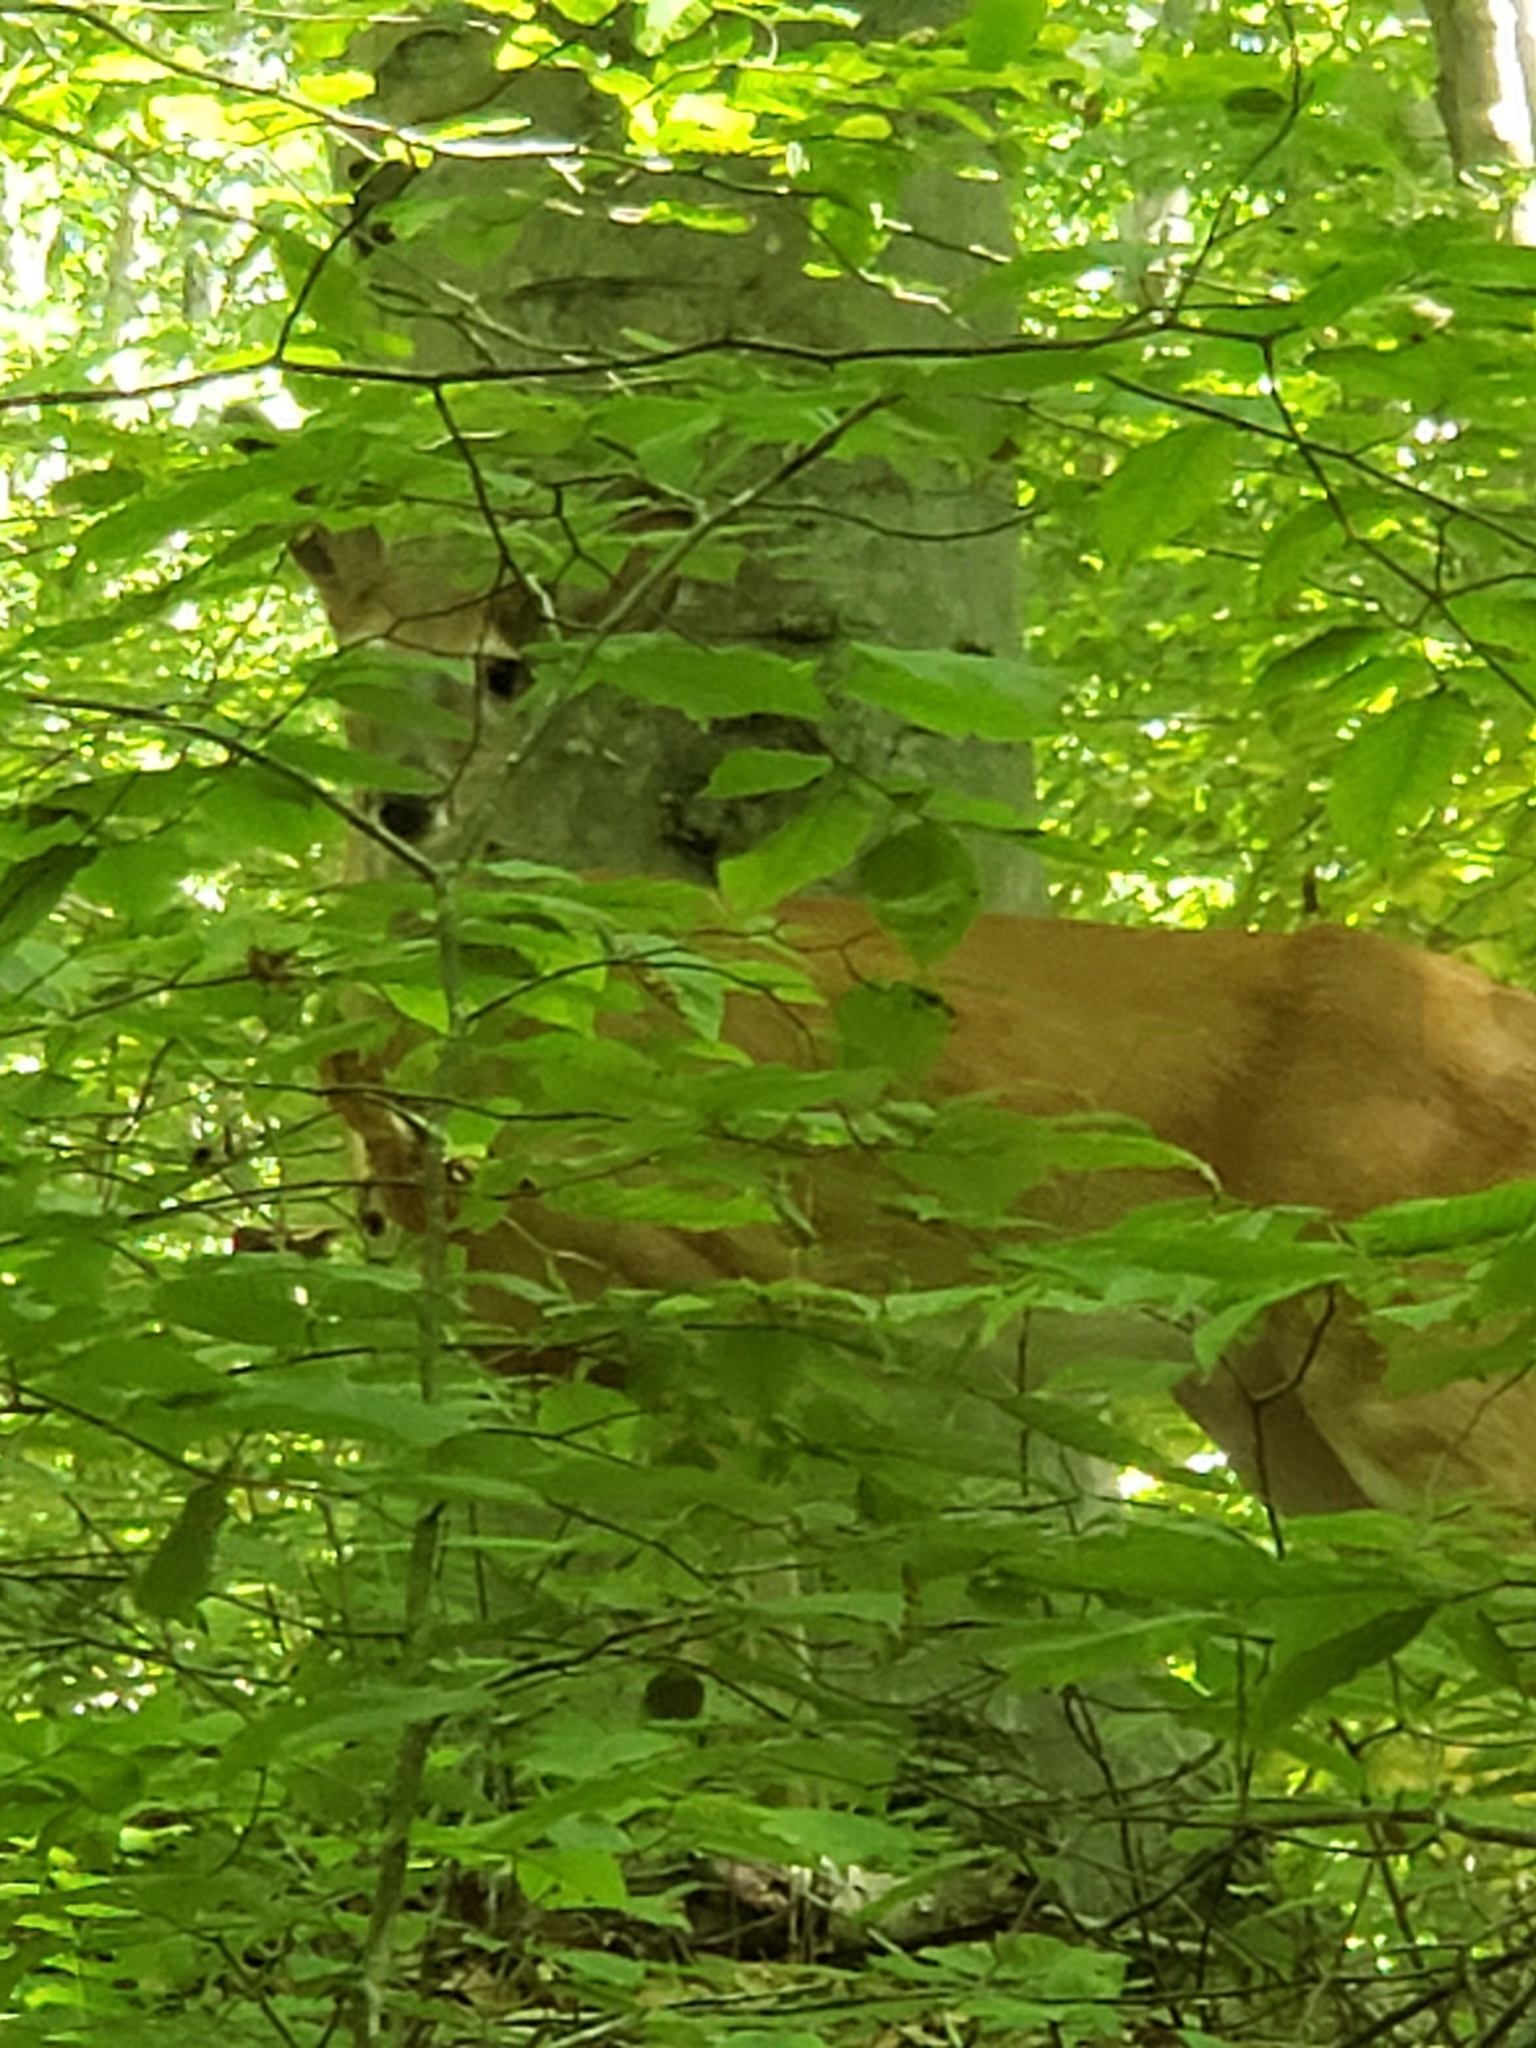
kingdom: Animalia
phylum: Chordata
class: Mammalia
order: Artiodactyla
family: Cervidae
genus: Odocoileus
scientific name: Odocoileus virginianus
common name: White-tailed deer
